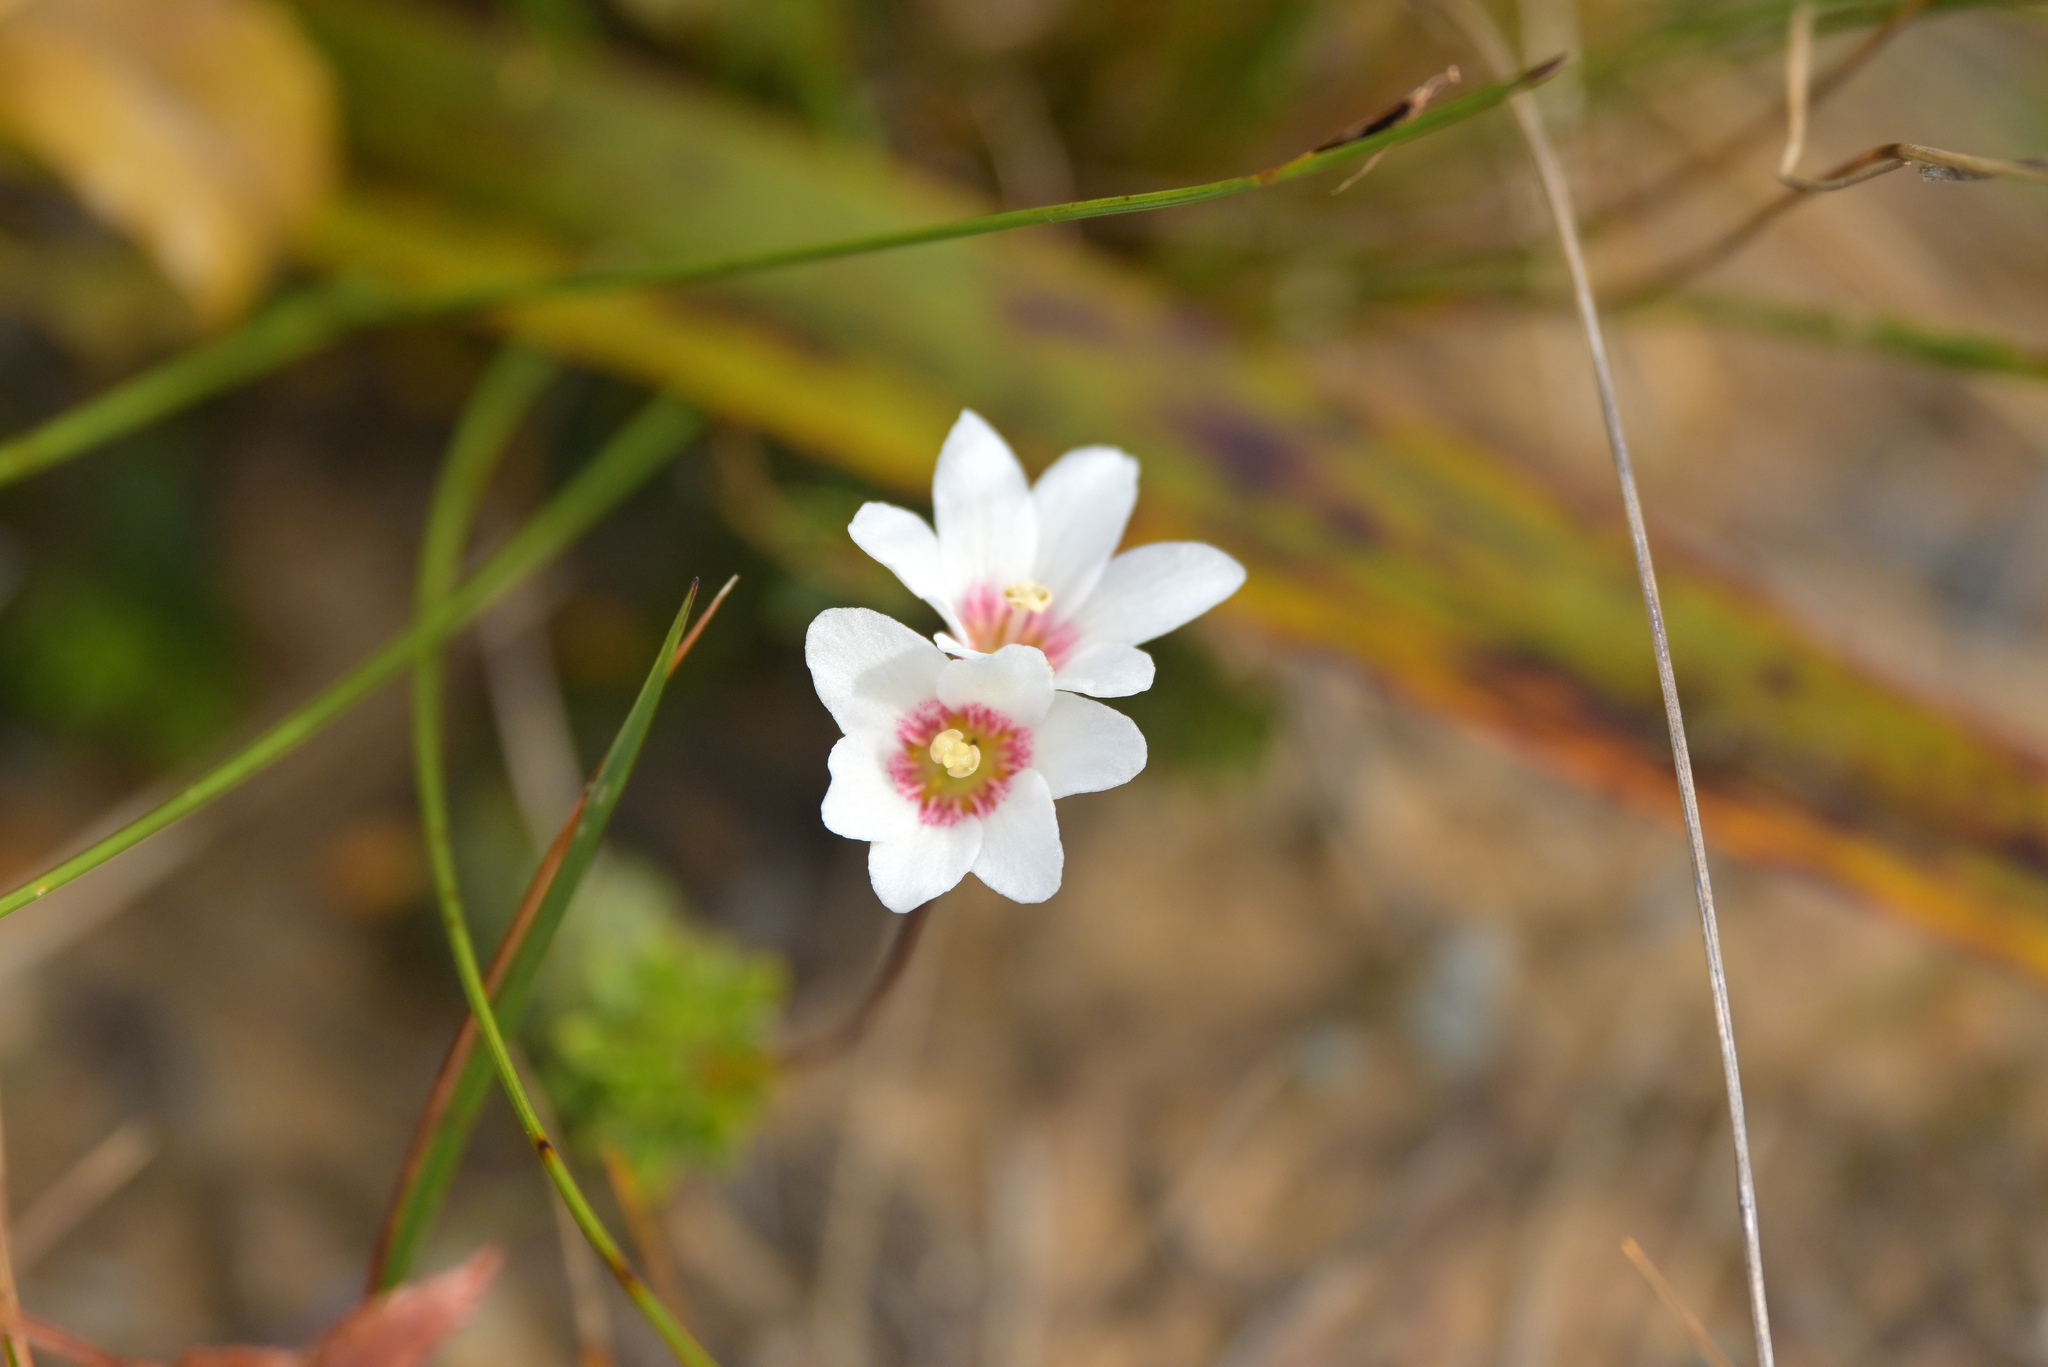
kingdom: Plantae
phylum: Tracheophyta
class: Magnoliopsida
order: Asterales
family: Stylidiaceae
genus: Forstera
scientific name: Forstera mackayi
